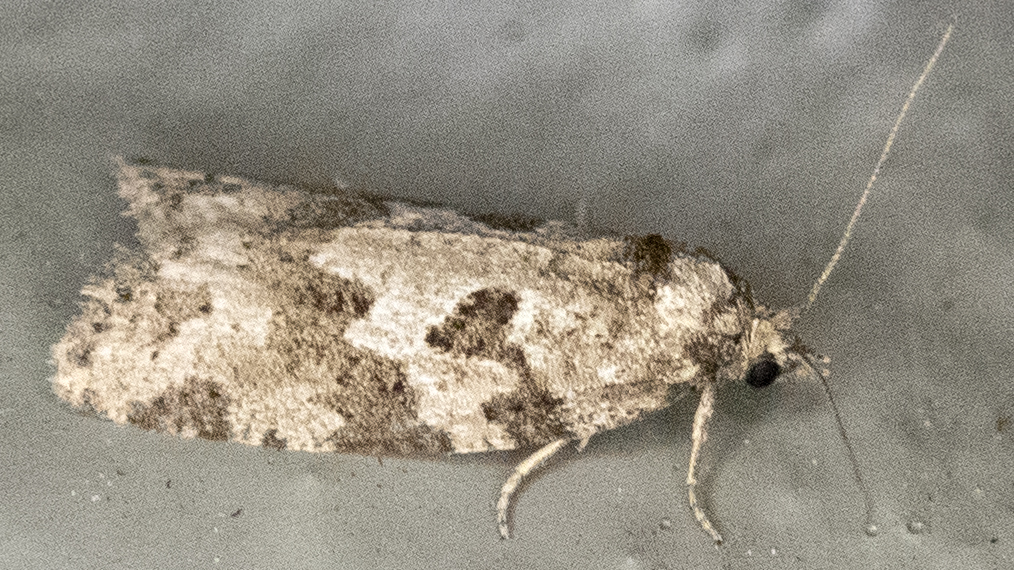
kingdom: Animalia
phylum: Arthropoda
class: Insecta
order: Lepidoptera
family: Tortricidae
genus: Cnephasia
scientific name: Cnephasia stephensiana
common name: Grey tortrix
